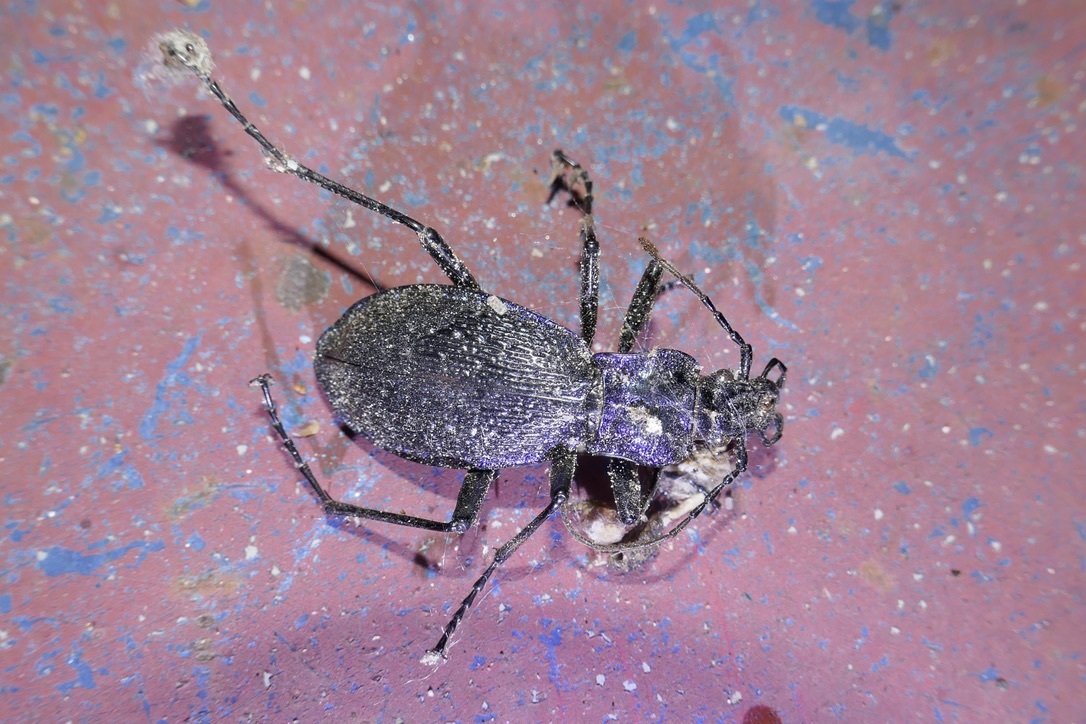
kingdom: Animalia
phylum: Arthropoda
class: Insecta
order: Coleoptera
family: Carabidae
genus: Carabus
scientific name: Carabus intricatus
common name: Blue ground beetle
